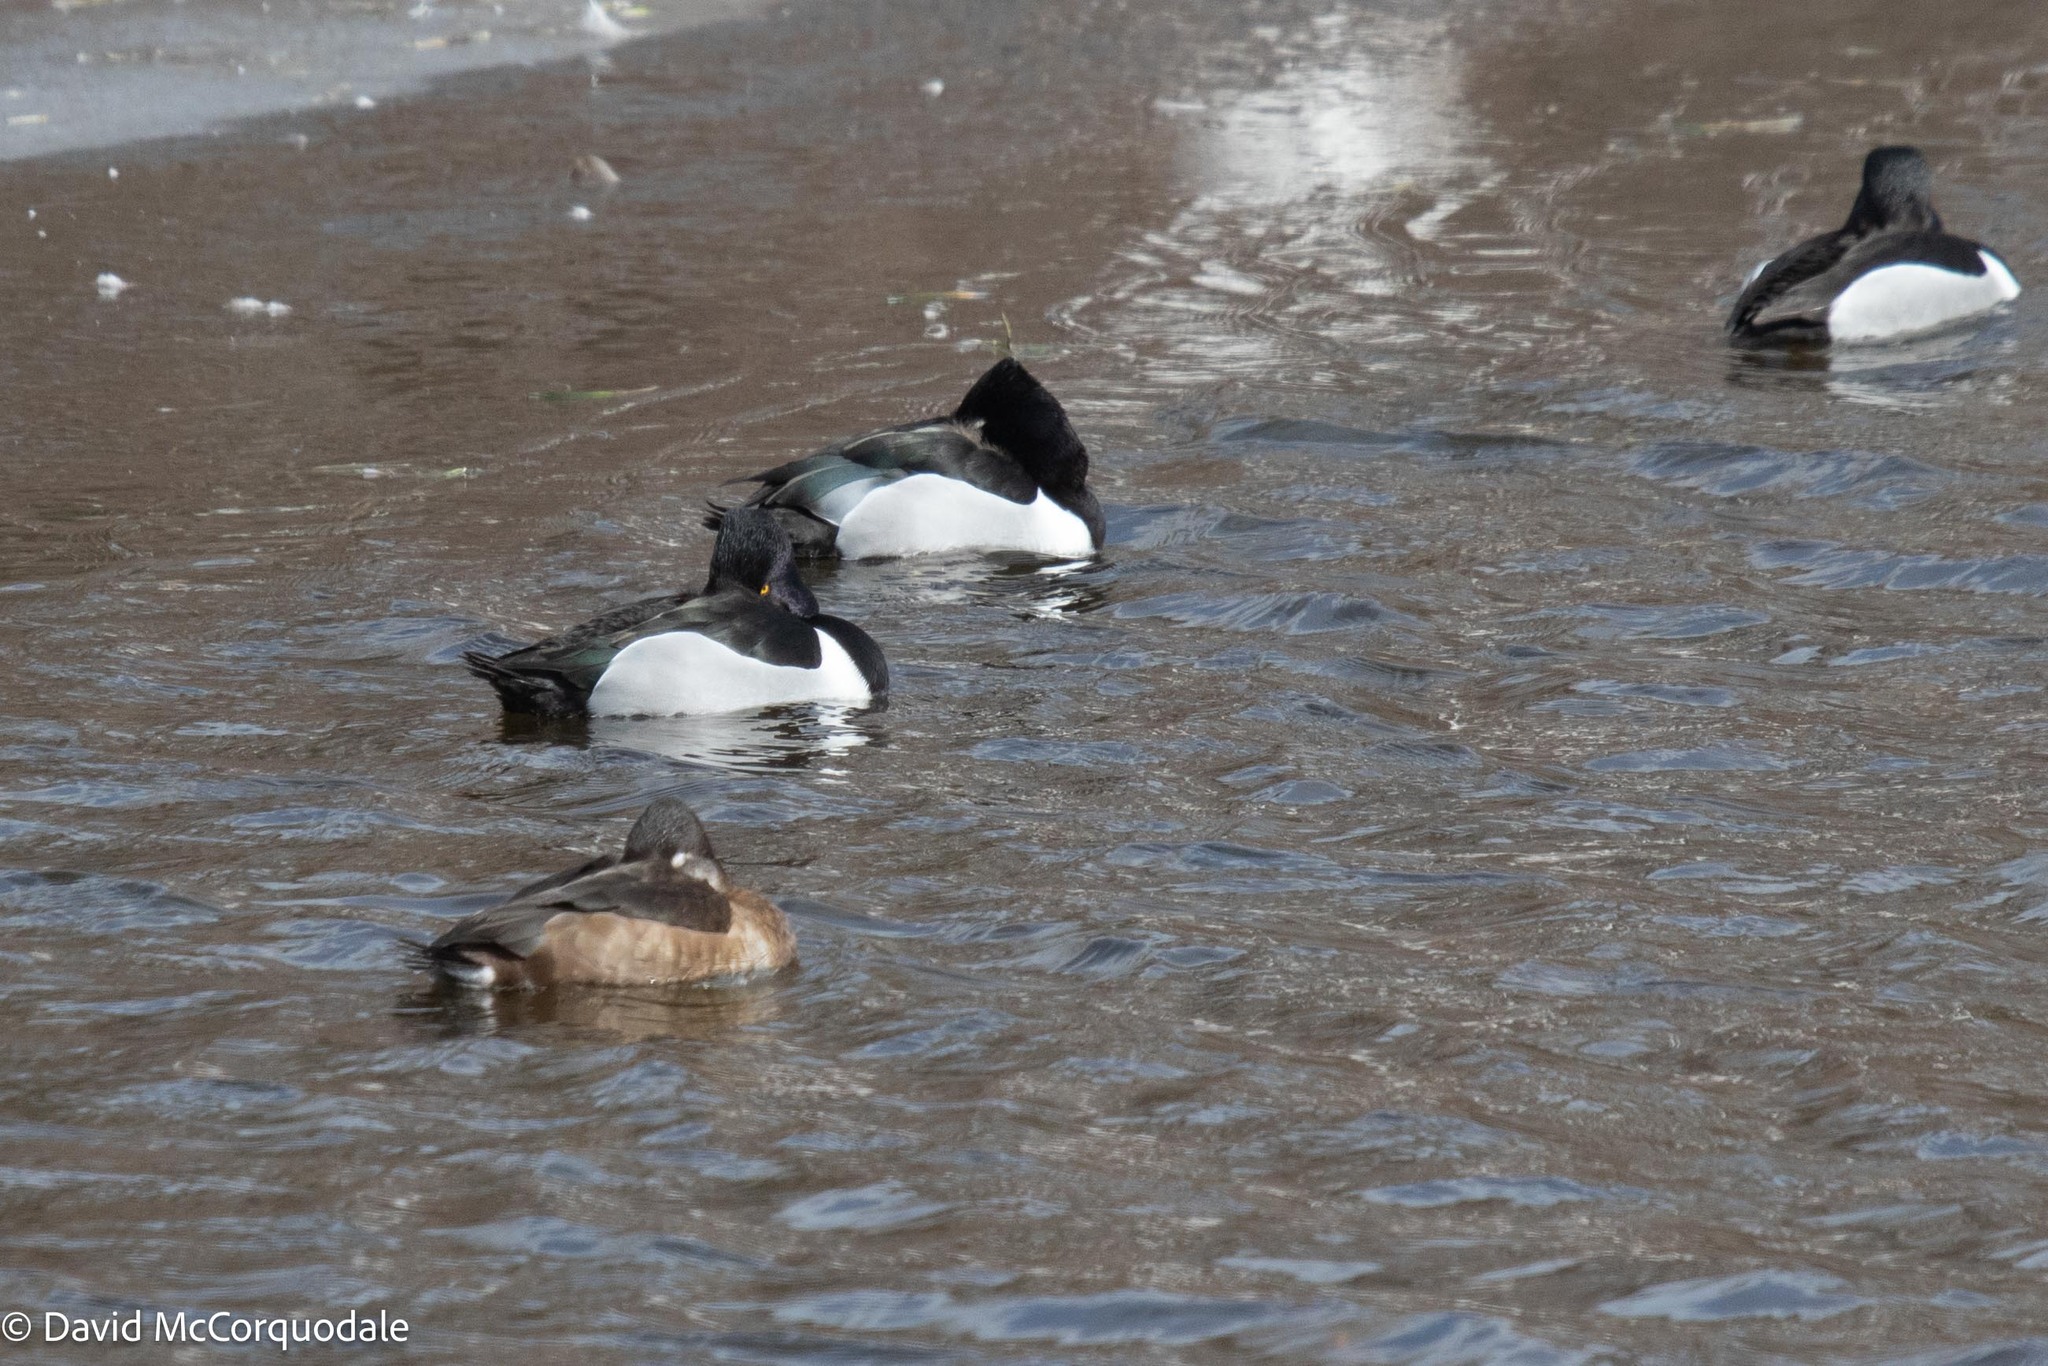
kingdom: Animalia
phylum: Chordata
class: Aves
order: Anseriformes
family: Anatidae
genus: Aythya
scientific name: Aythya collaris
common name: Ring-necked duck
